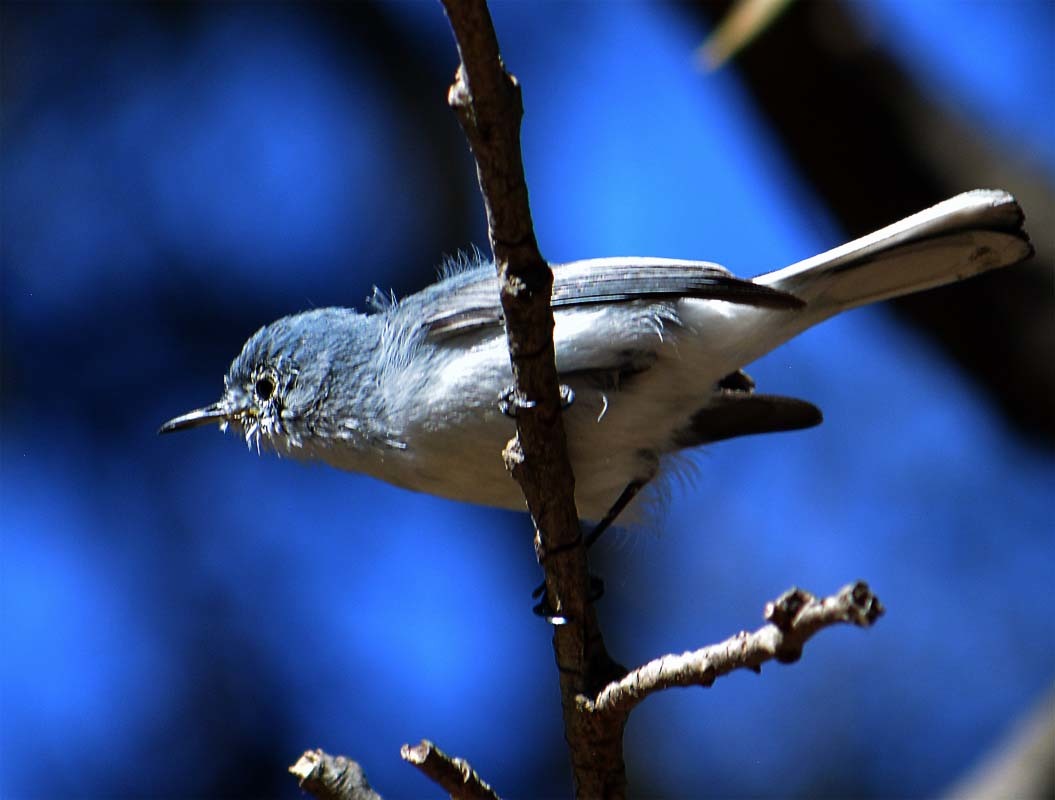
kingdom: Animalia
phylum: Chordata
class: Aves
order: Passeriformes
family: Polioptilidae
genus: Polioptila
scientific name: Polioptila caerulea
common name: Blue-gray gnatcatcher
